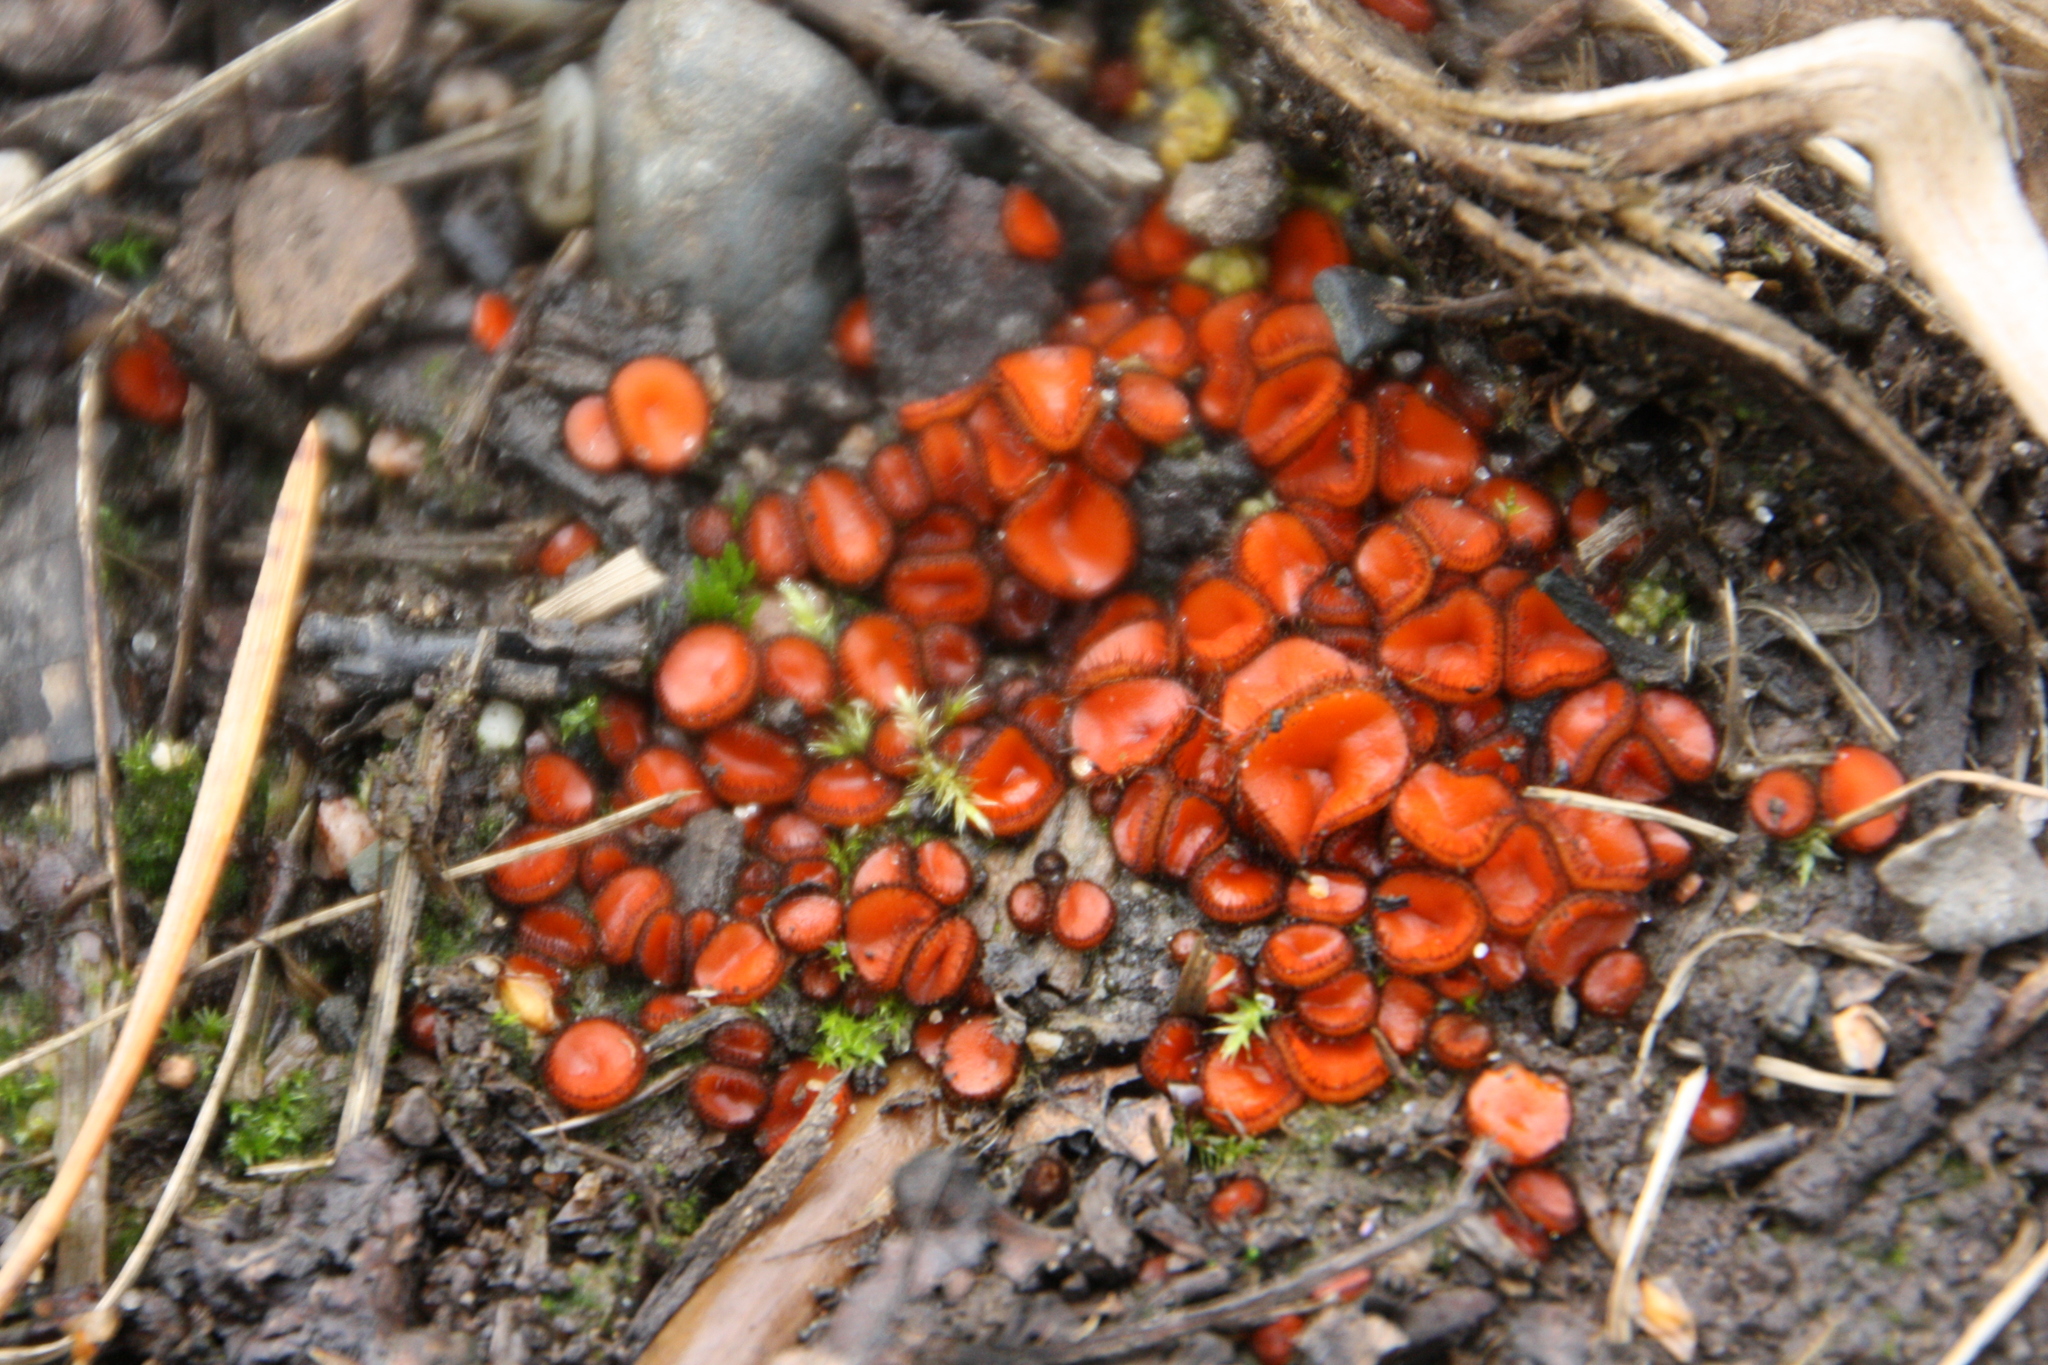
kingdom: Fungi
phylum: Ascomycota
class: Pezizomycetes
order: Pezizales
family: Pyronemataceae
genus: Scutellinia
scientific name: Scutellinia
